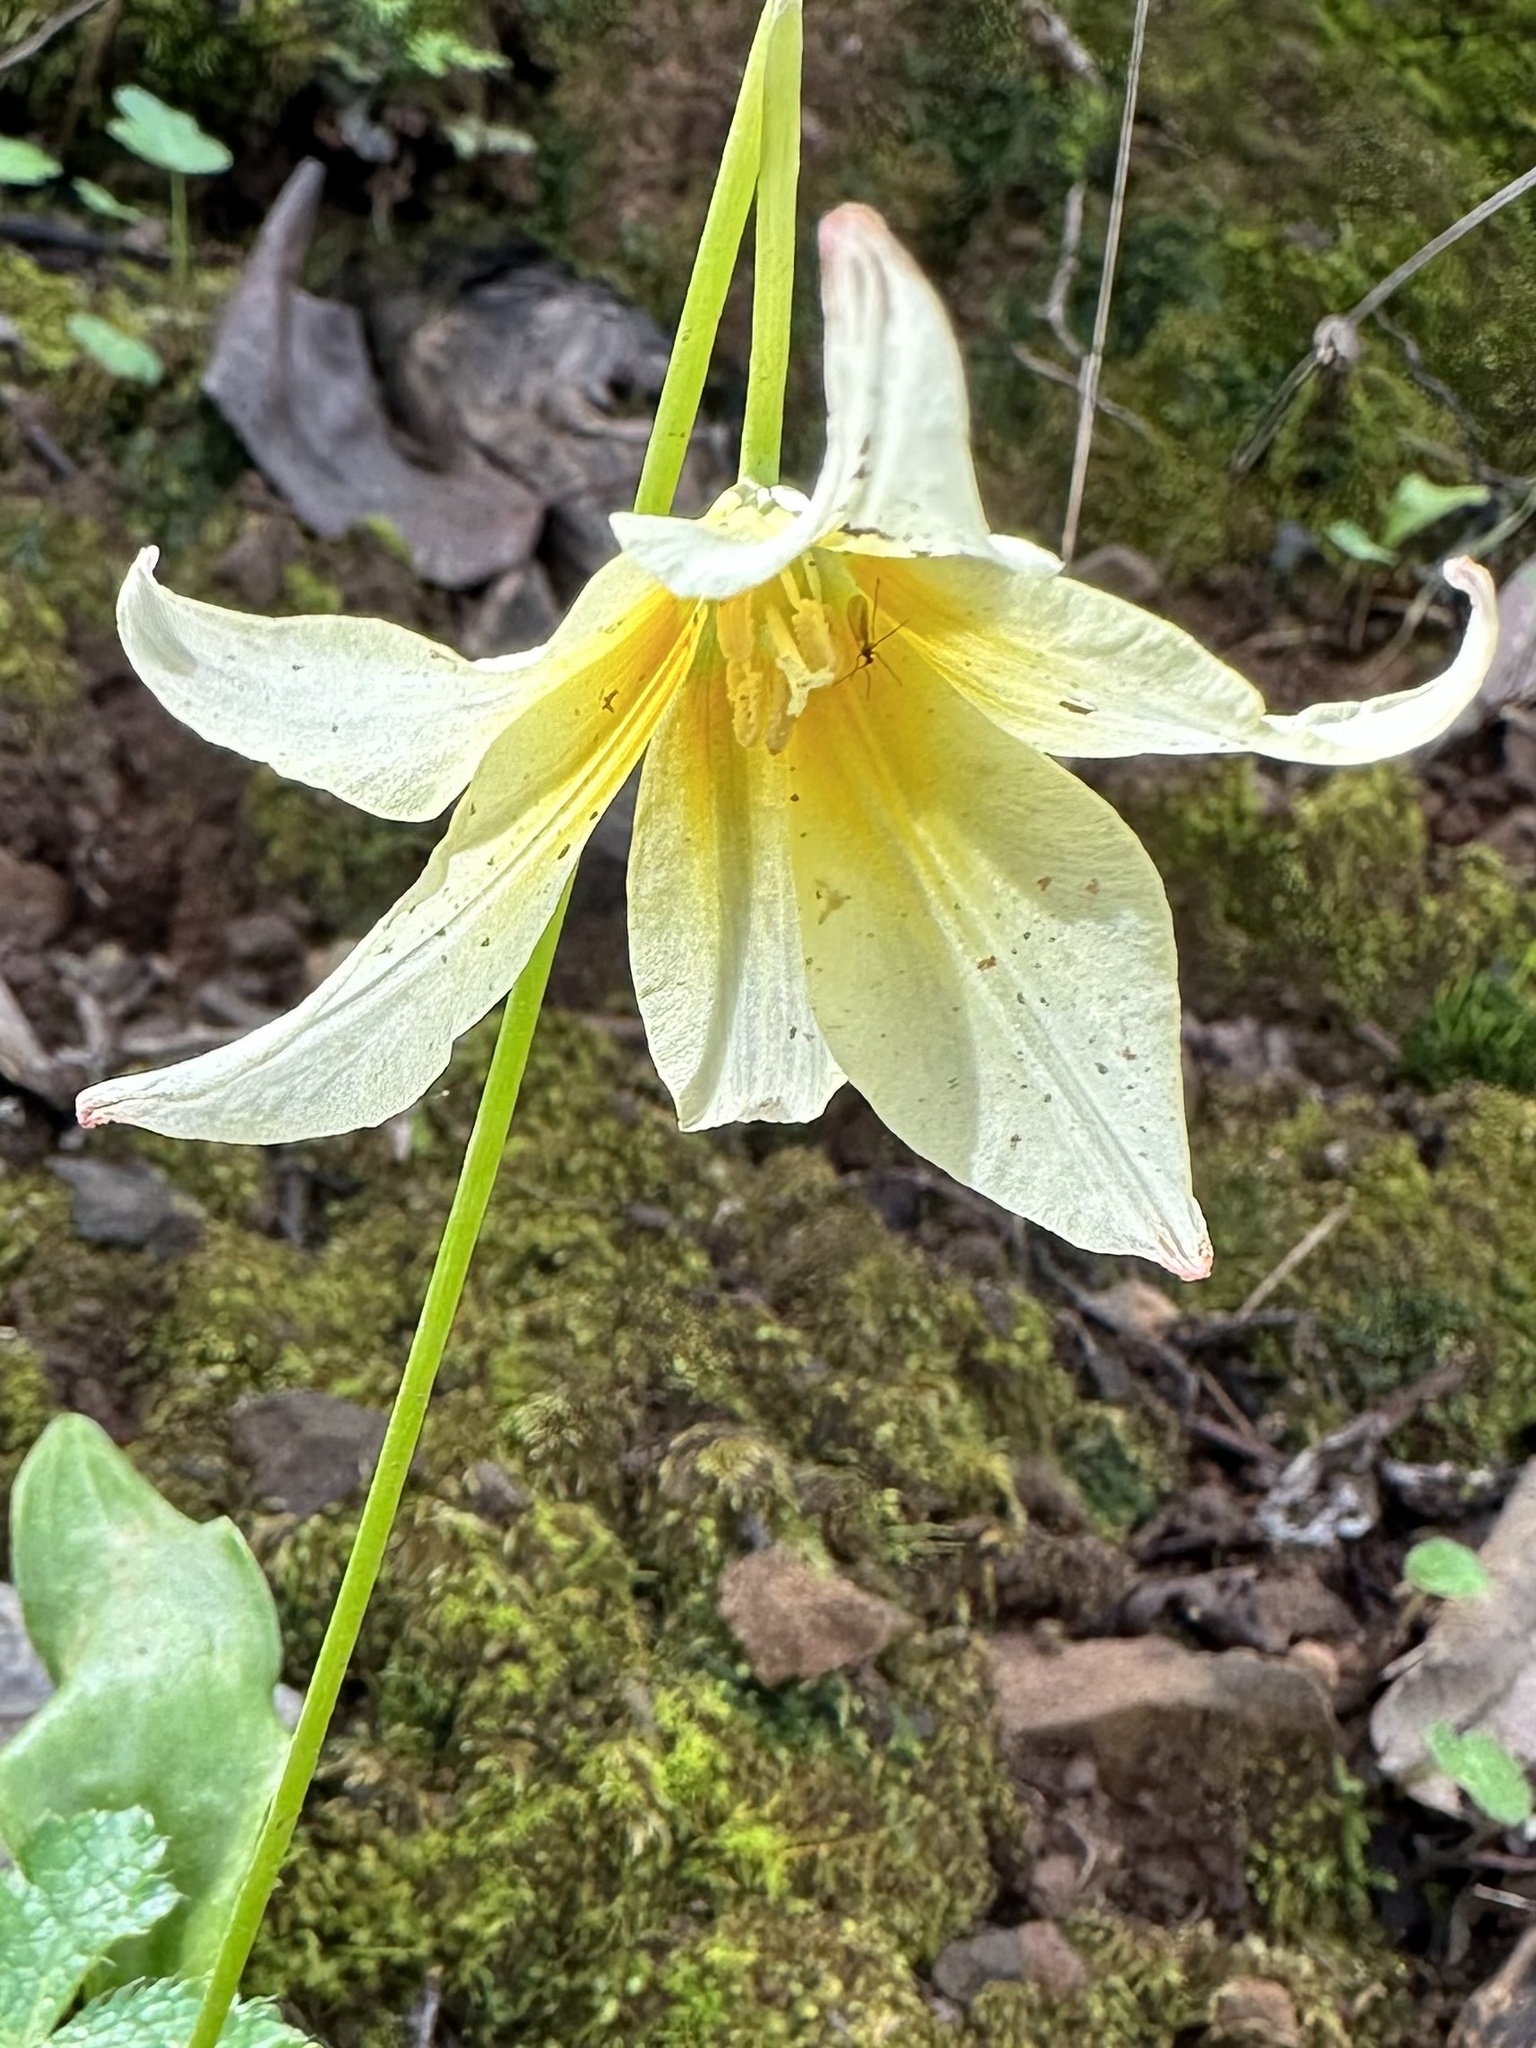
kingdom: Plantae
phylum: Tracheophyta
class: Liliopsida
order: Liliales
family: Liliaceae
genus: Erythronium
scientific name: Erythronium californicum
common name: Fawn-lily
